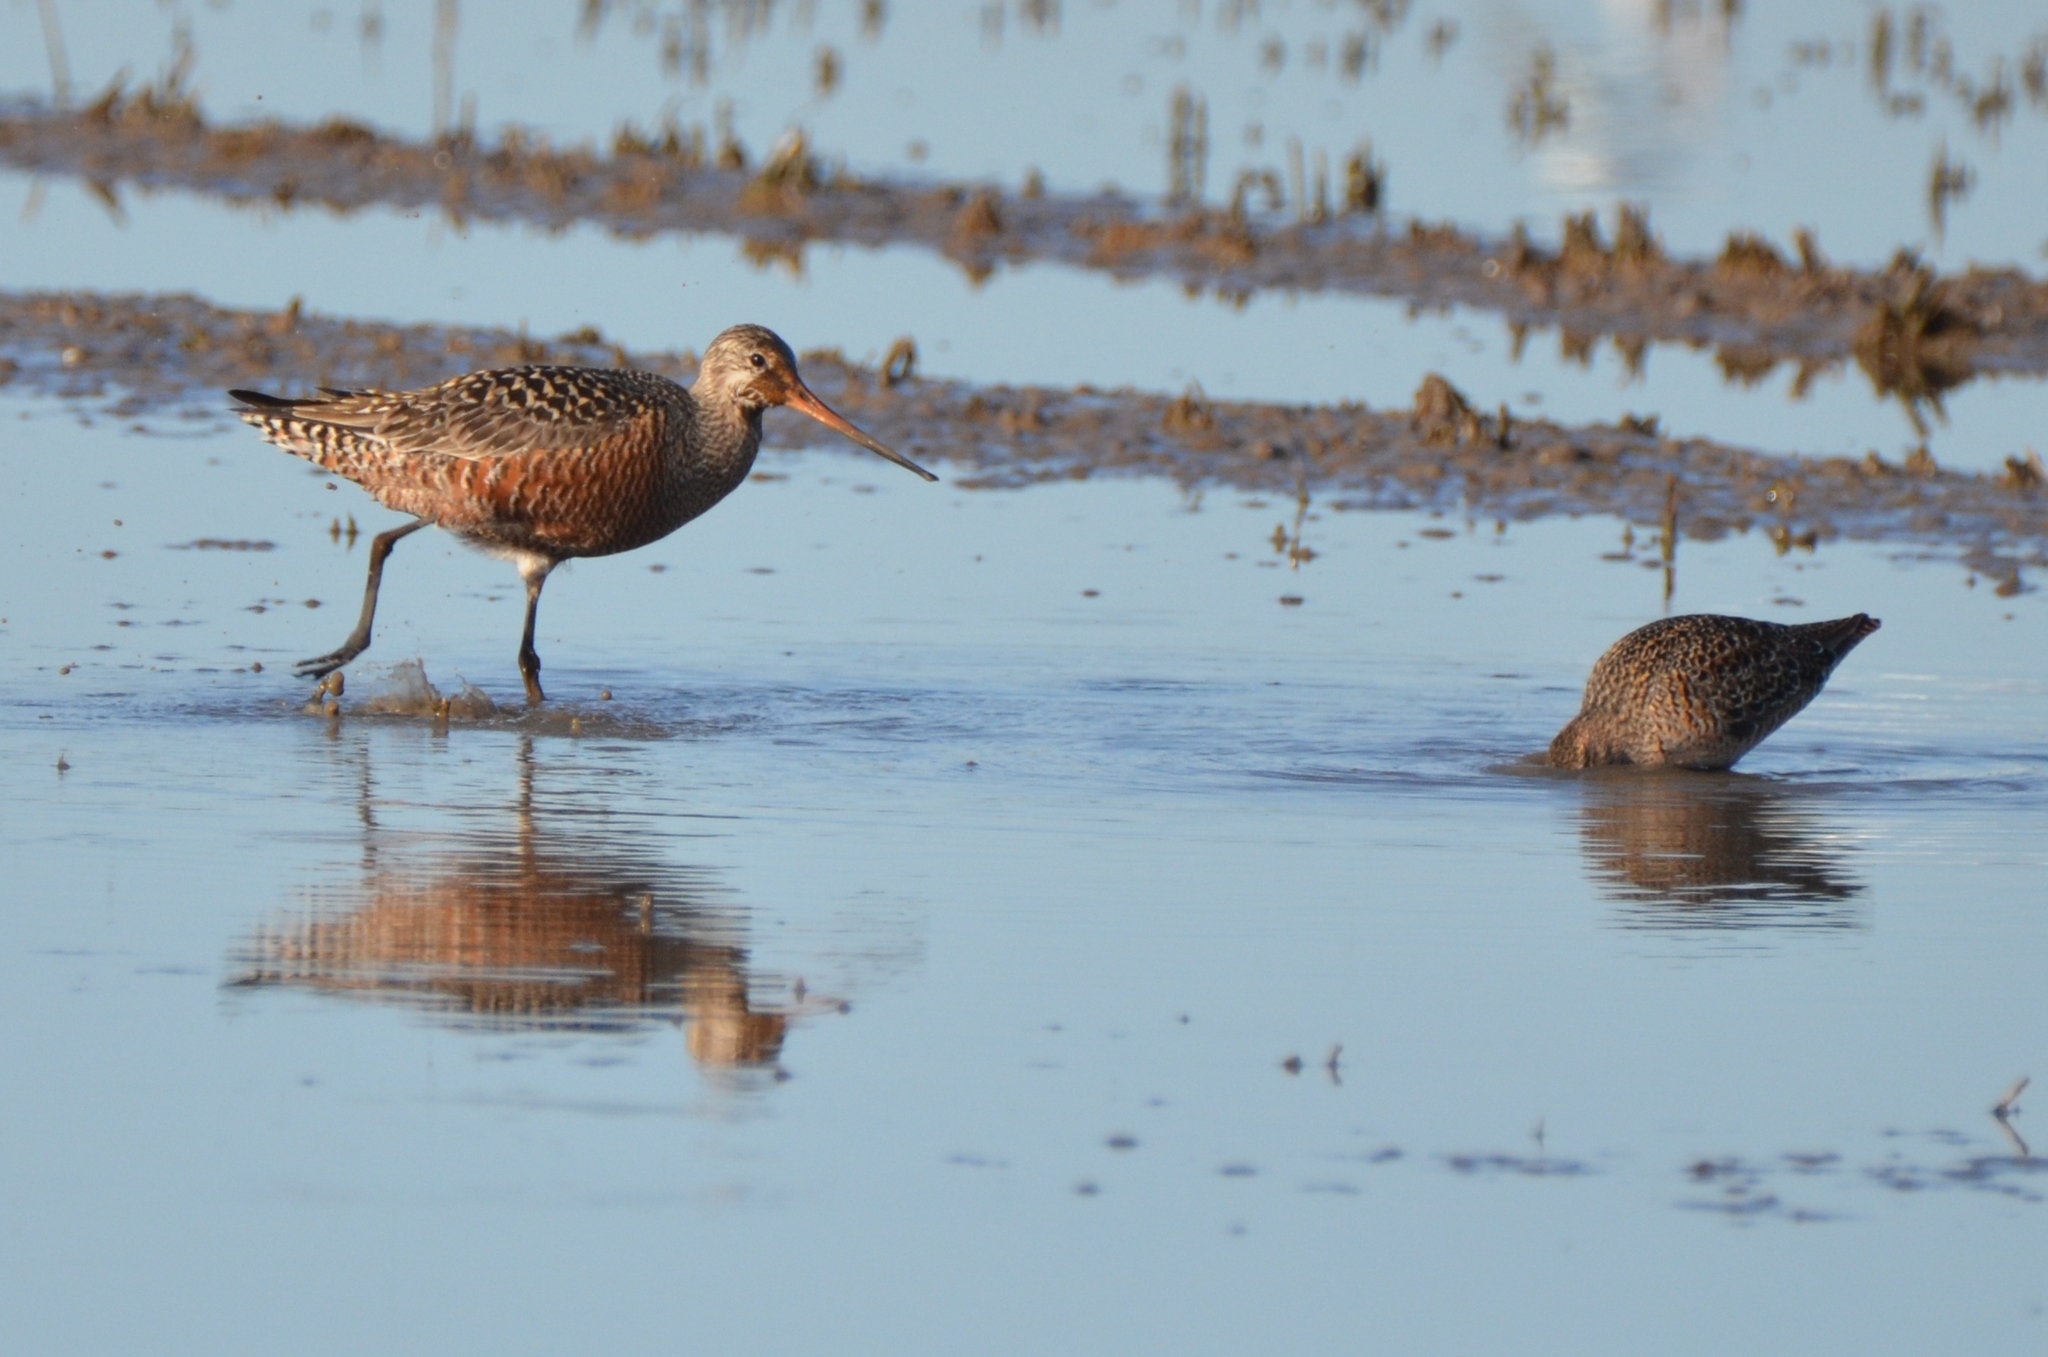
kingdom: Animalia
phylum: Chordata
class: Aves
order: Charadriiformes
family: Scolopacidae
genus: Limosa
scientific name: Limosa haemastica
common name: Hudsonian godwit
